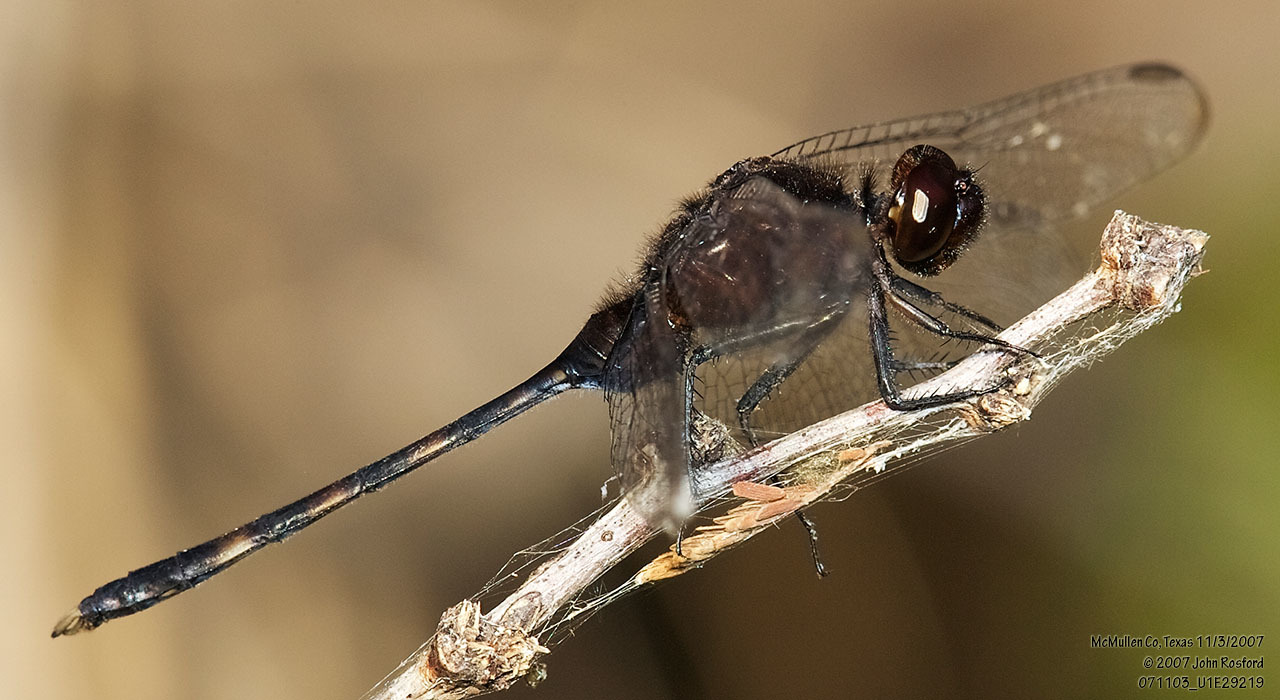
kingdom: Animalia
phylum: Arthropoda
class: Insecta
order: Odonata
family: Libellulidae
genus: Erythemis
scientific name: Erythemis plebeja
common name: Pin-tailed pondhawk
